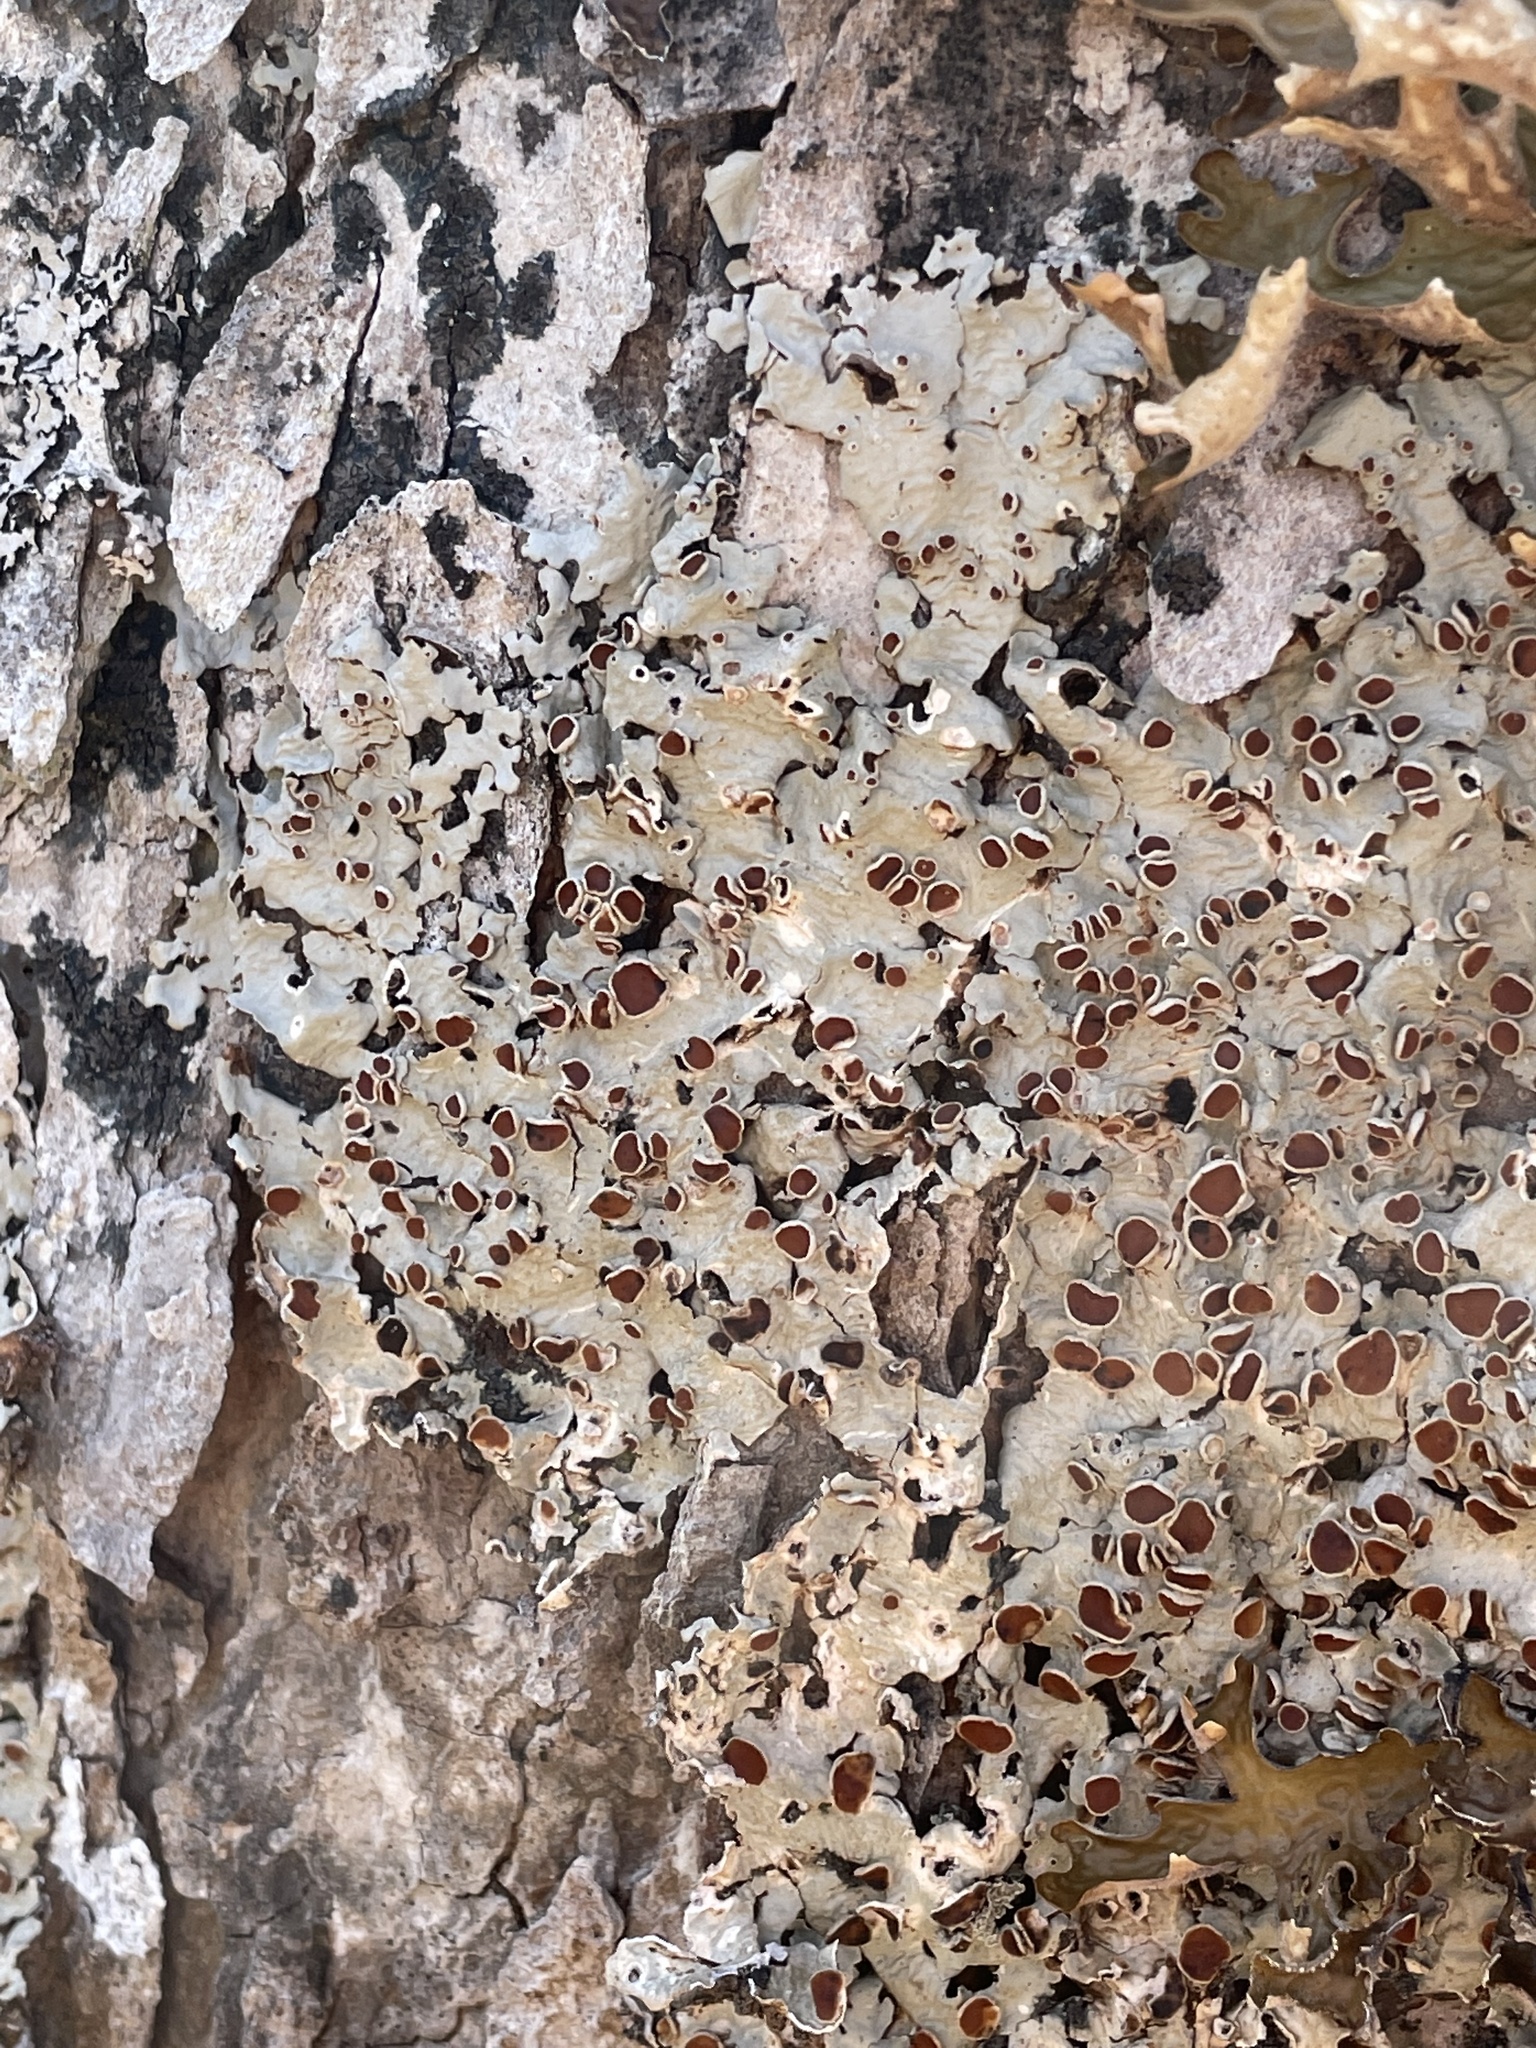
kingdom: Fungi
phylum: Ascomycota
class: Lecanoromycetes
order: Peltigerales
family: Lobariaceae
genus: Ricasolia
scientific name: Ricasolia quercizans
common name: Smooth lungwort
